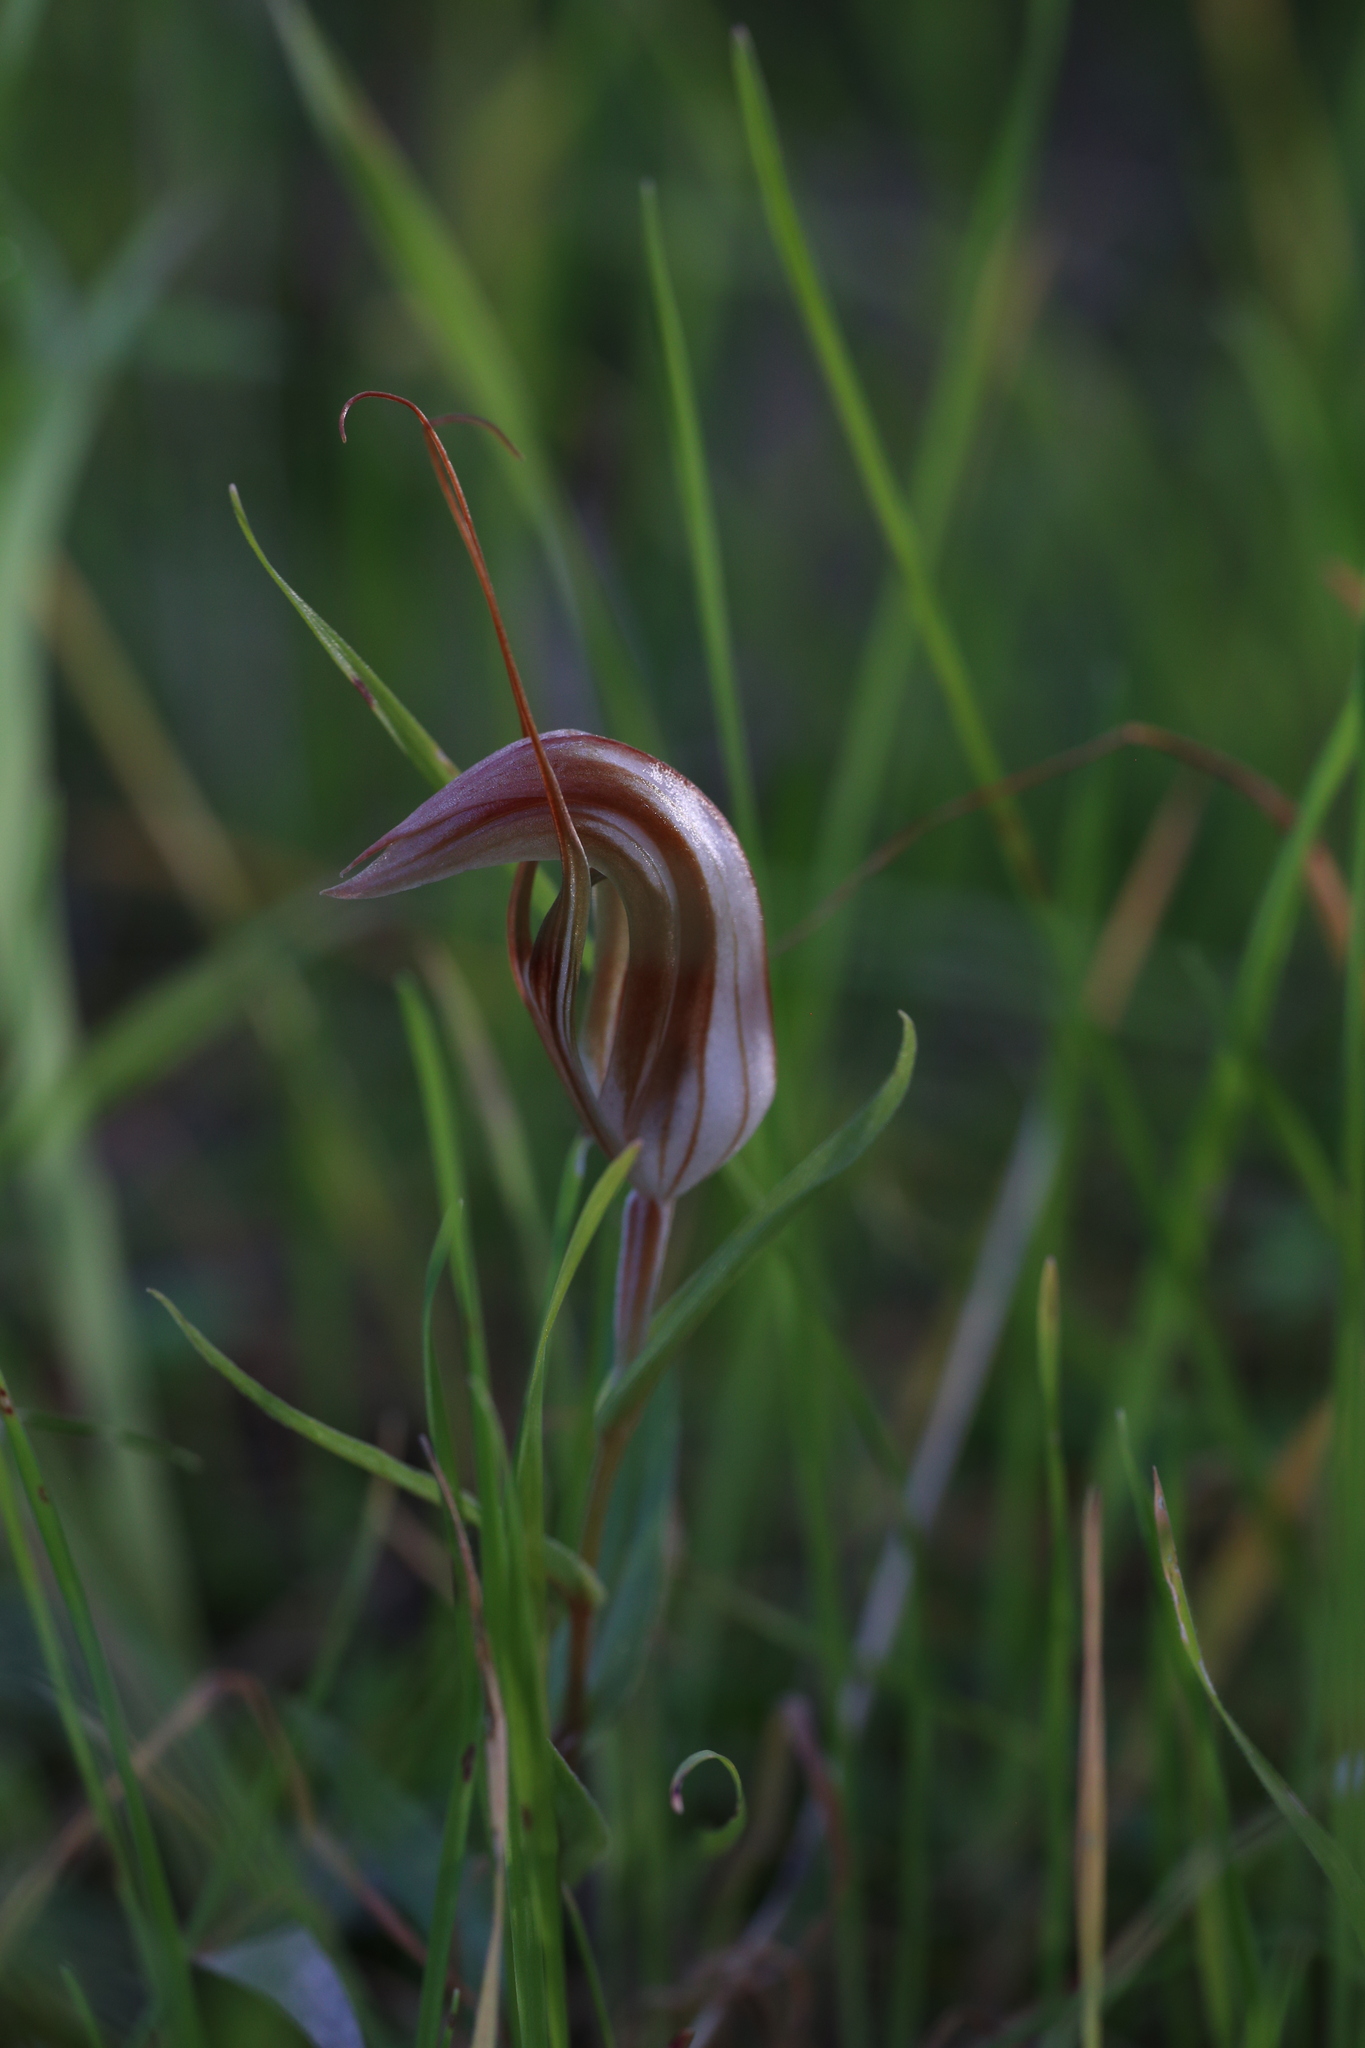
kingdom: Plantae
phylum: Tracheophyta
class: Liliopsida
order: Asparagales
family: Orchidaceae
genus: Pterostylis
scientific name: Pterostylis rogersii
